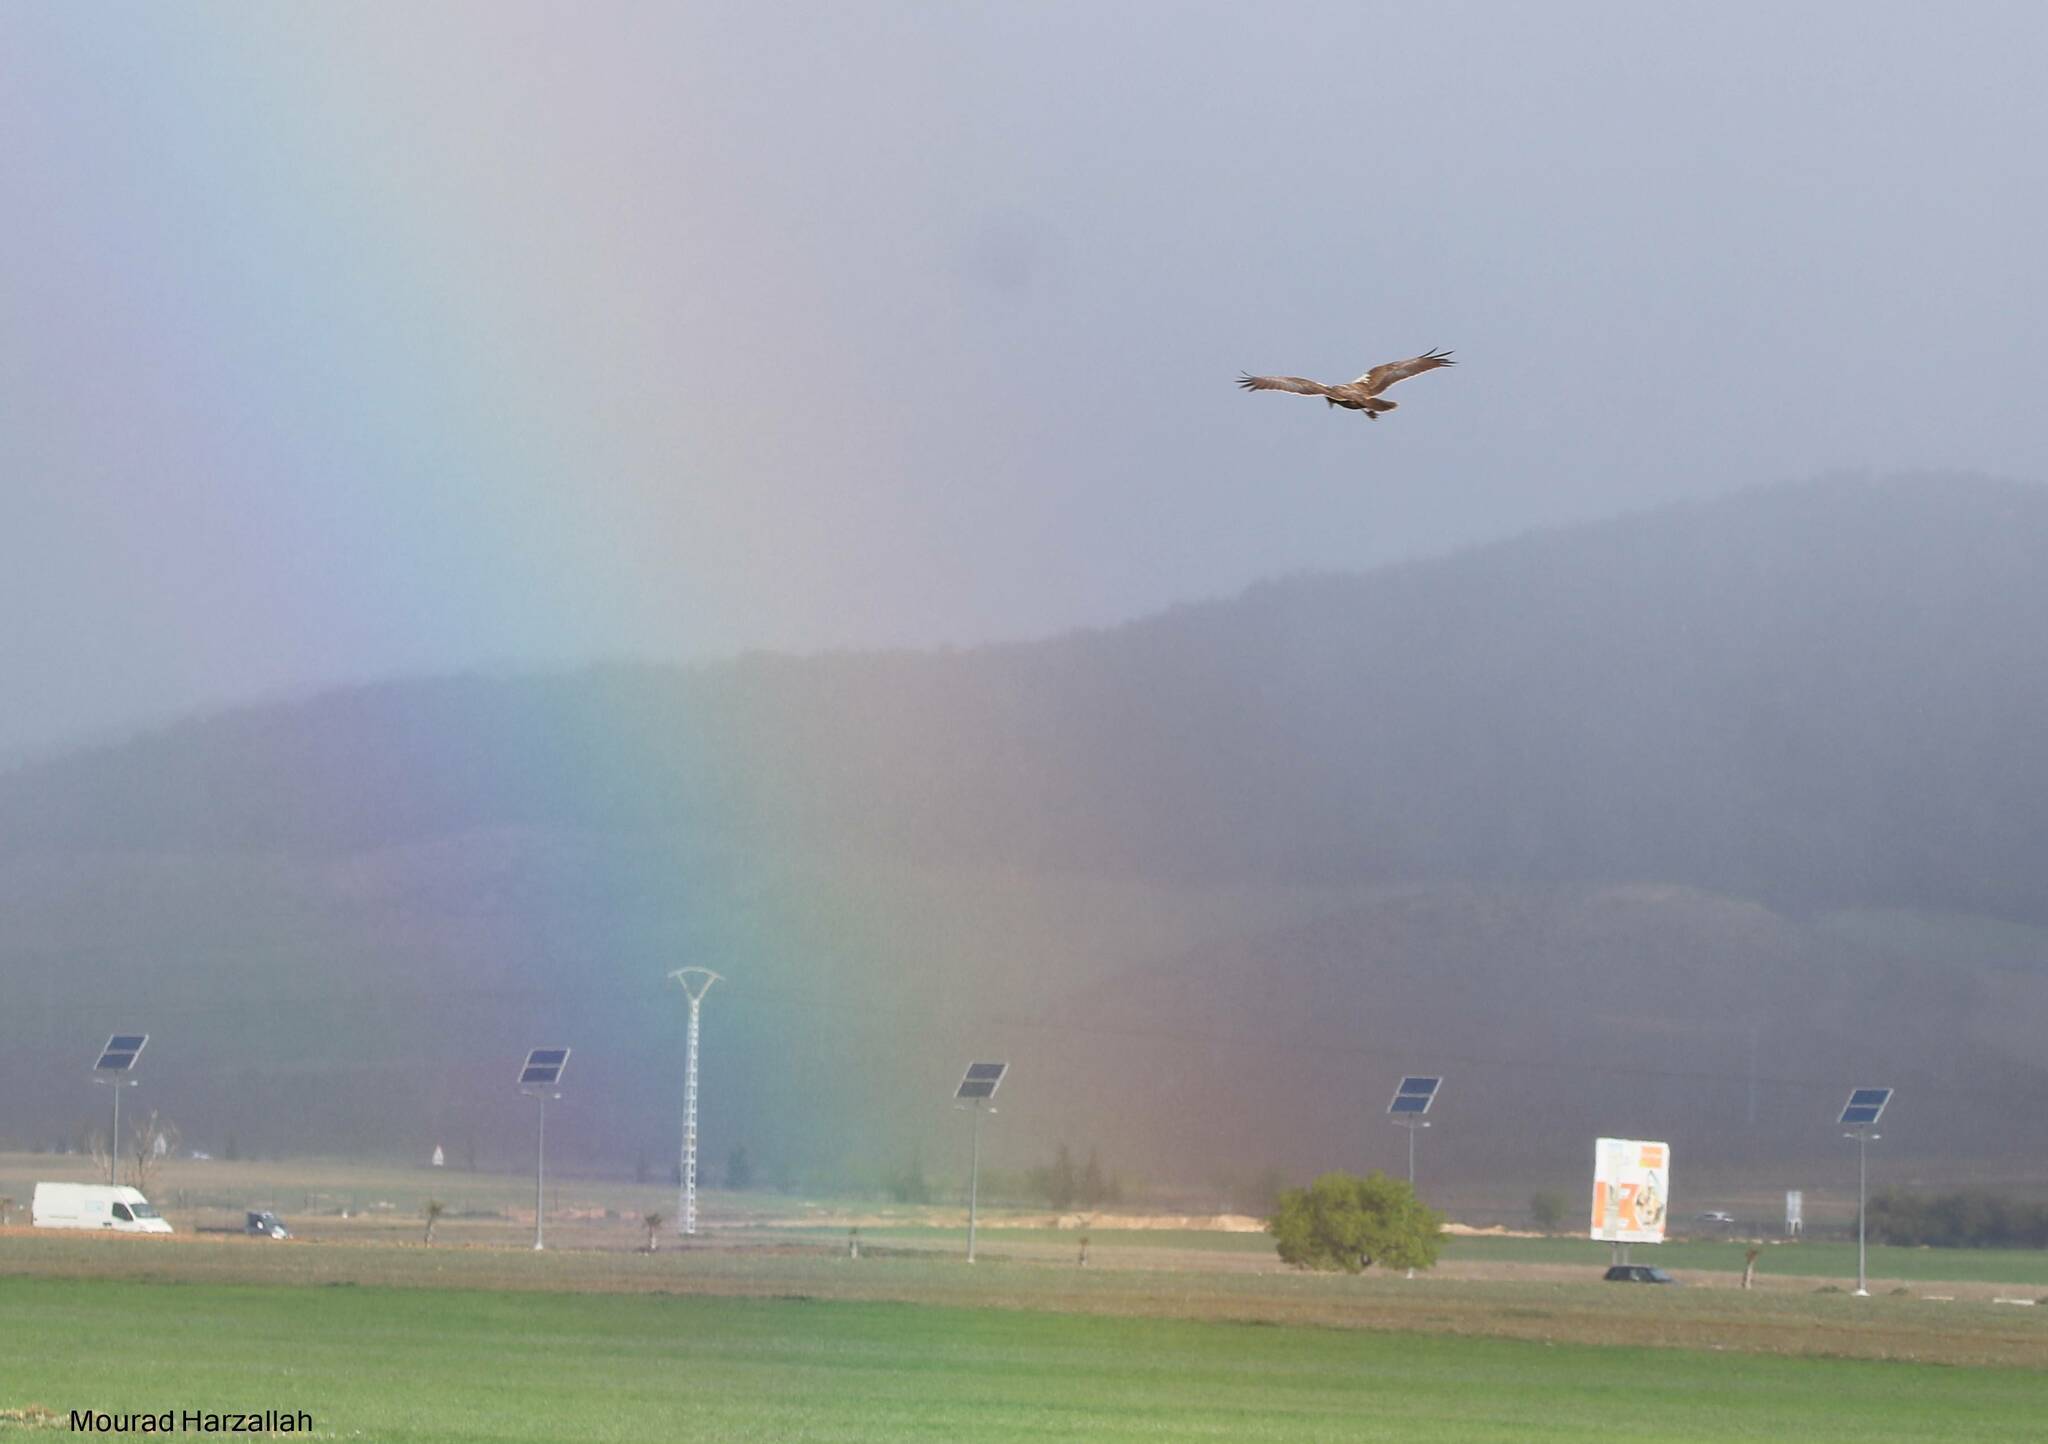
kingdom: Animalia
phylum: Chordata
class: Aves
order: Accipitriformes
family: Accipitridae
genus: Circus
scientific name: Circus aeruginosus
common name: Western marsh harrier
